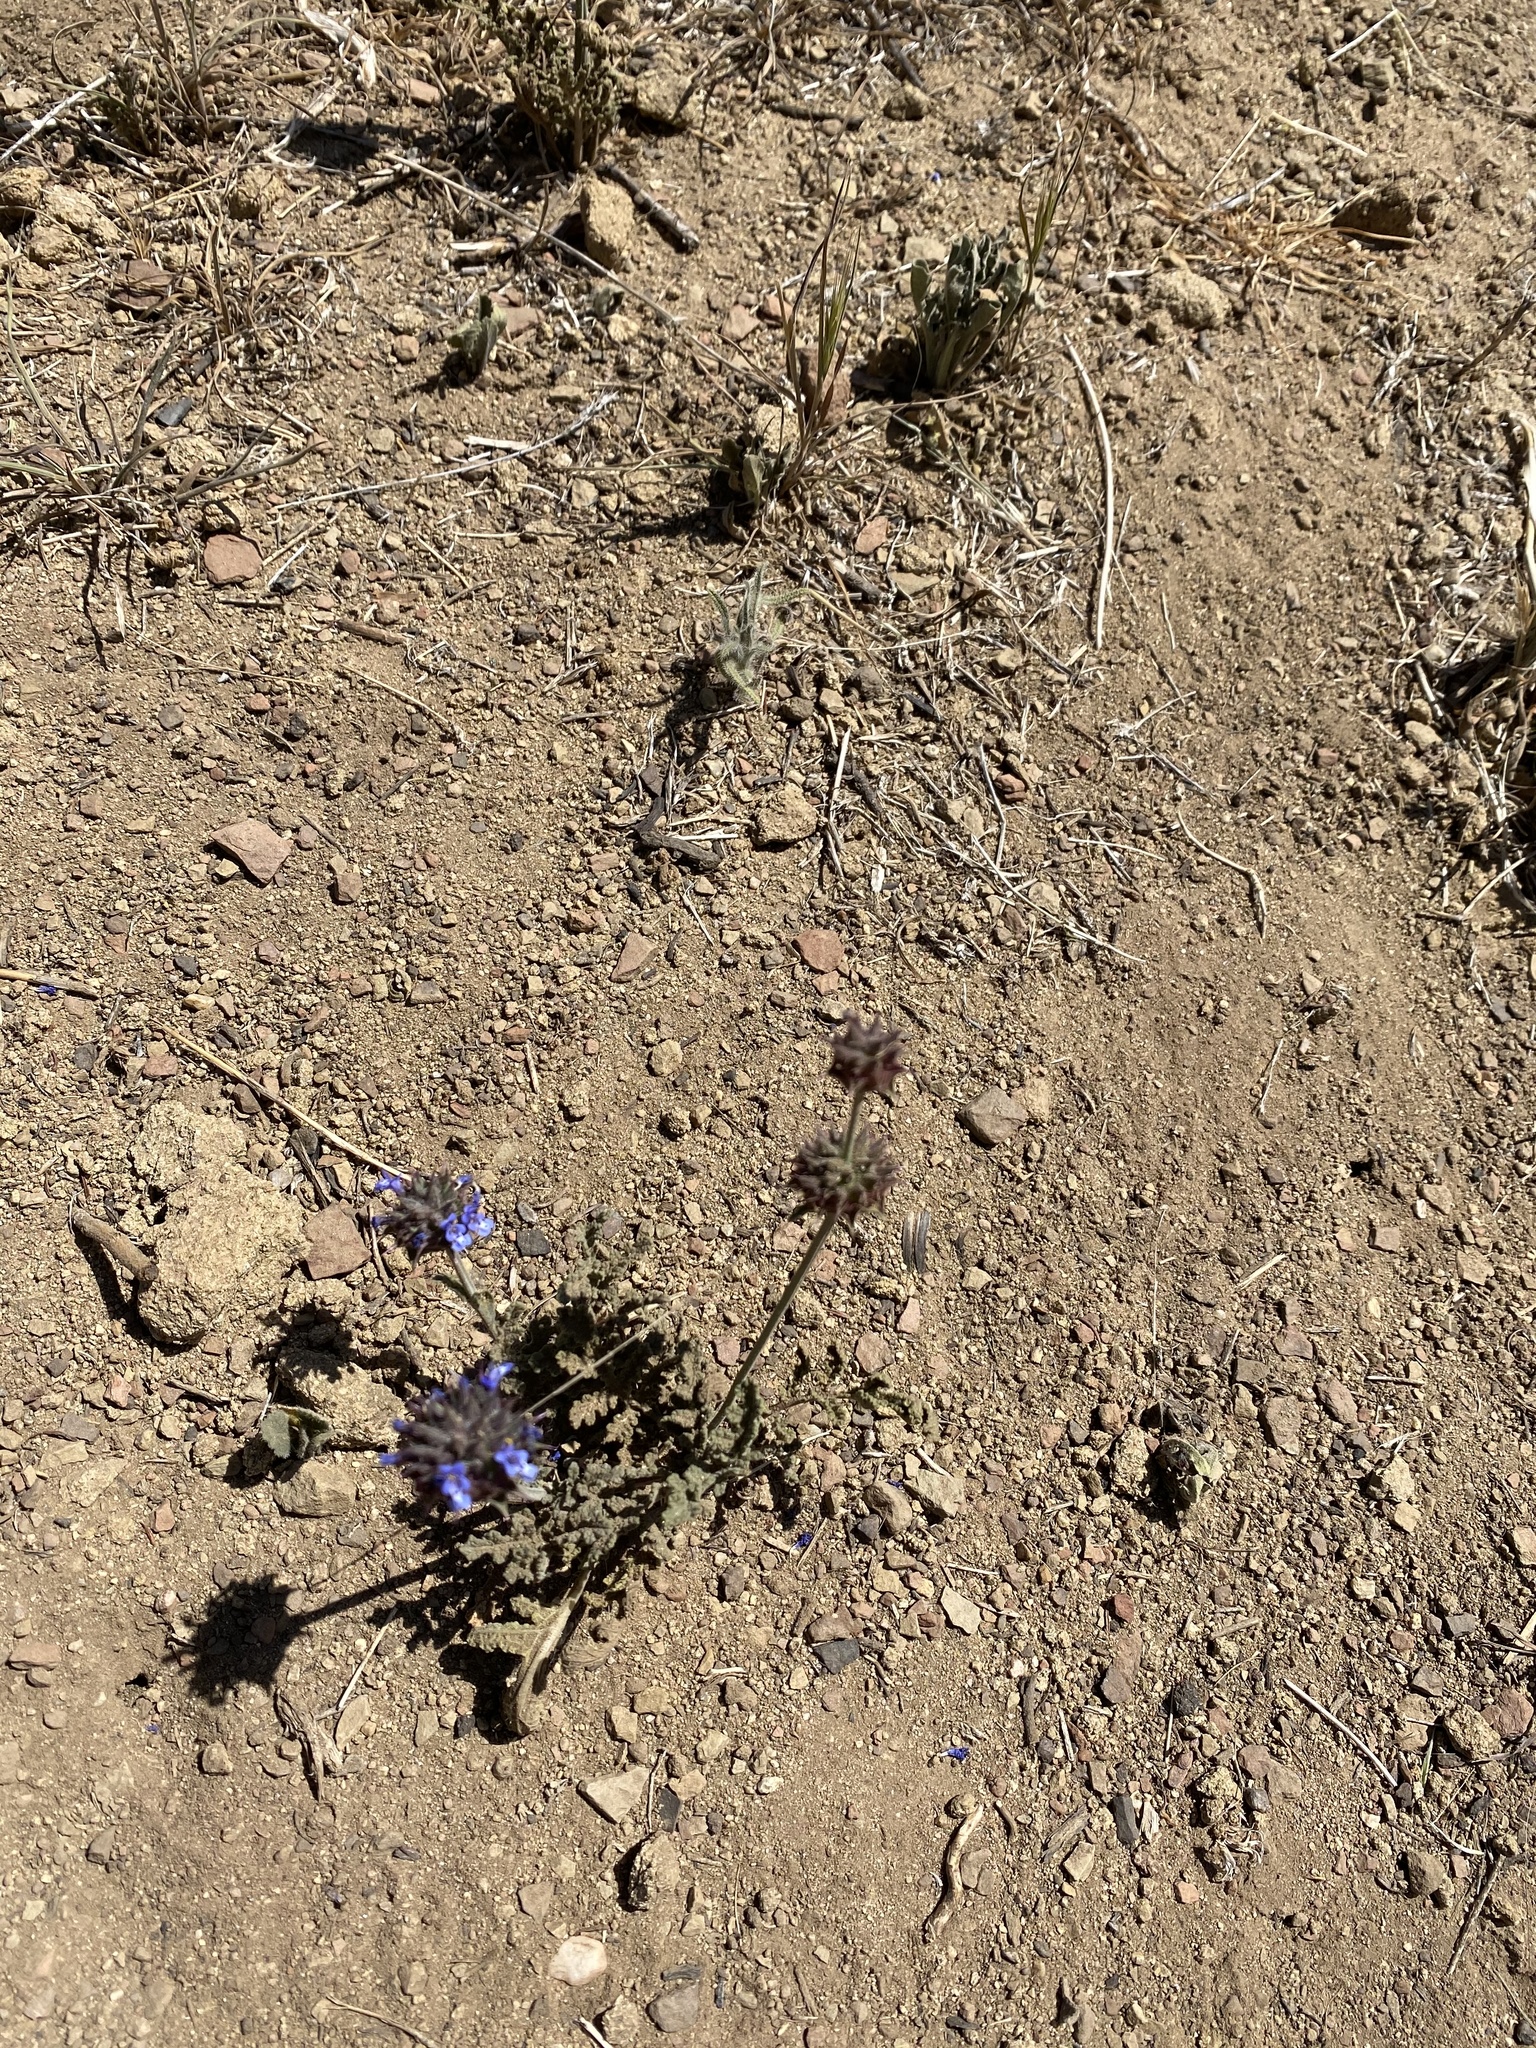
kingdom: Plantae
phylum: Tracheophyta
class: Magnoliopsida
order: Lamiales
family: Lamiaceae
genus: Salvia
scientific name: Salvia columbariae
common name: Chia
